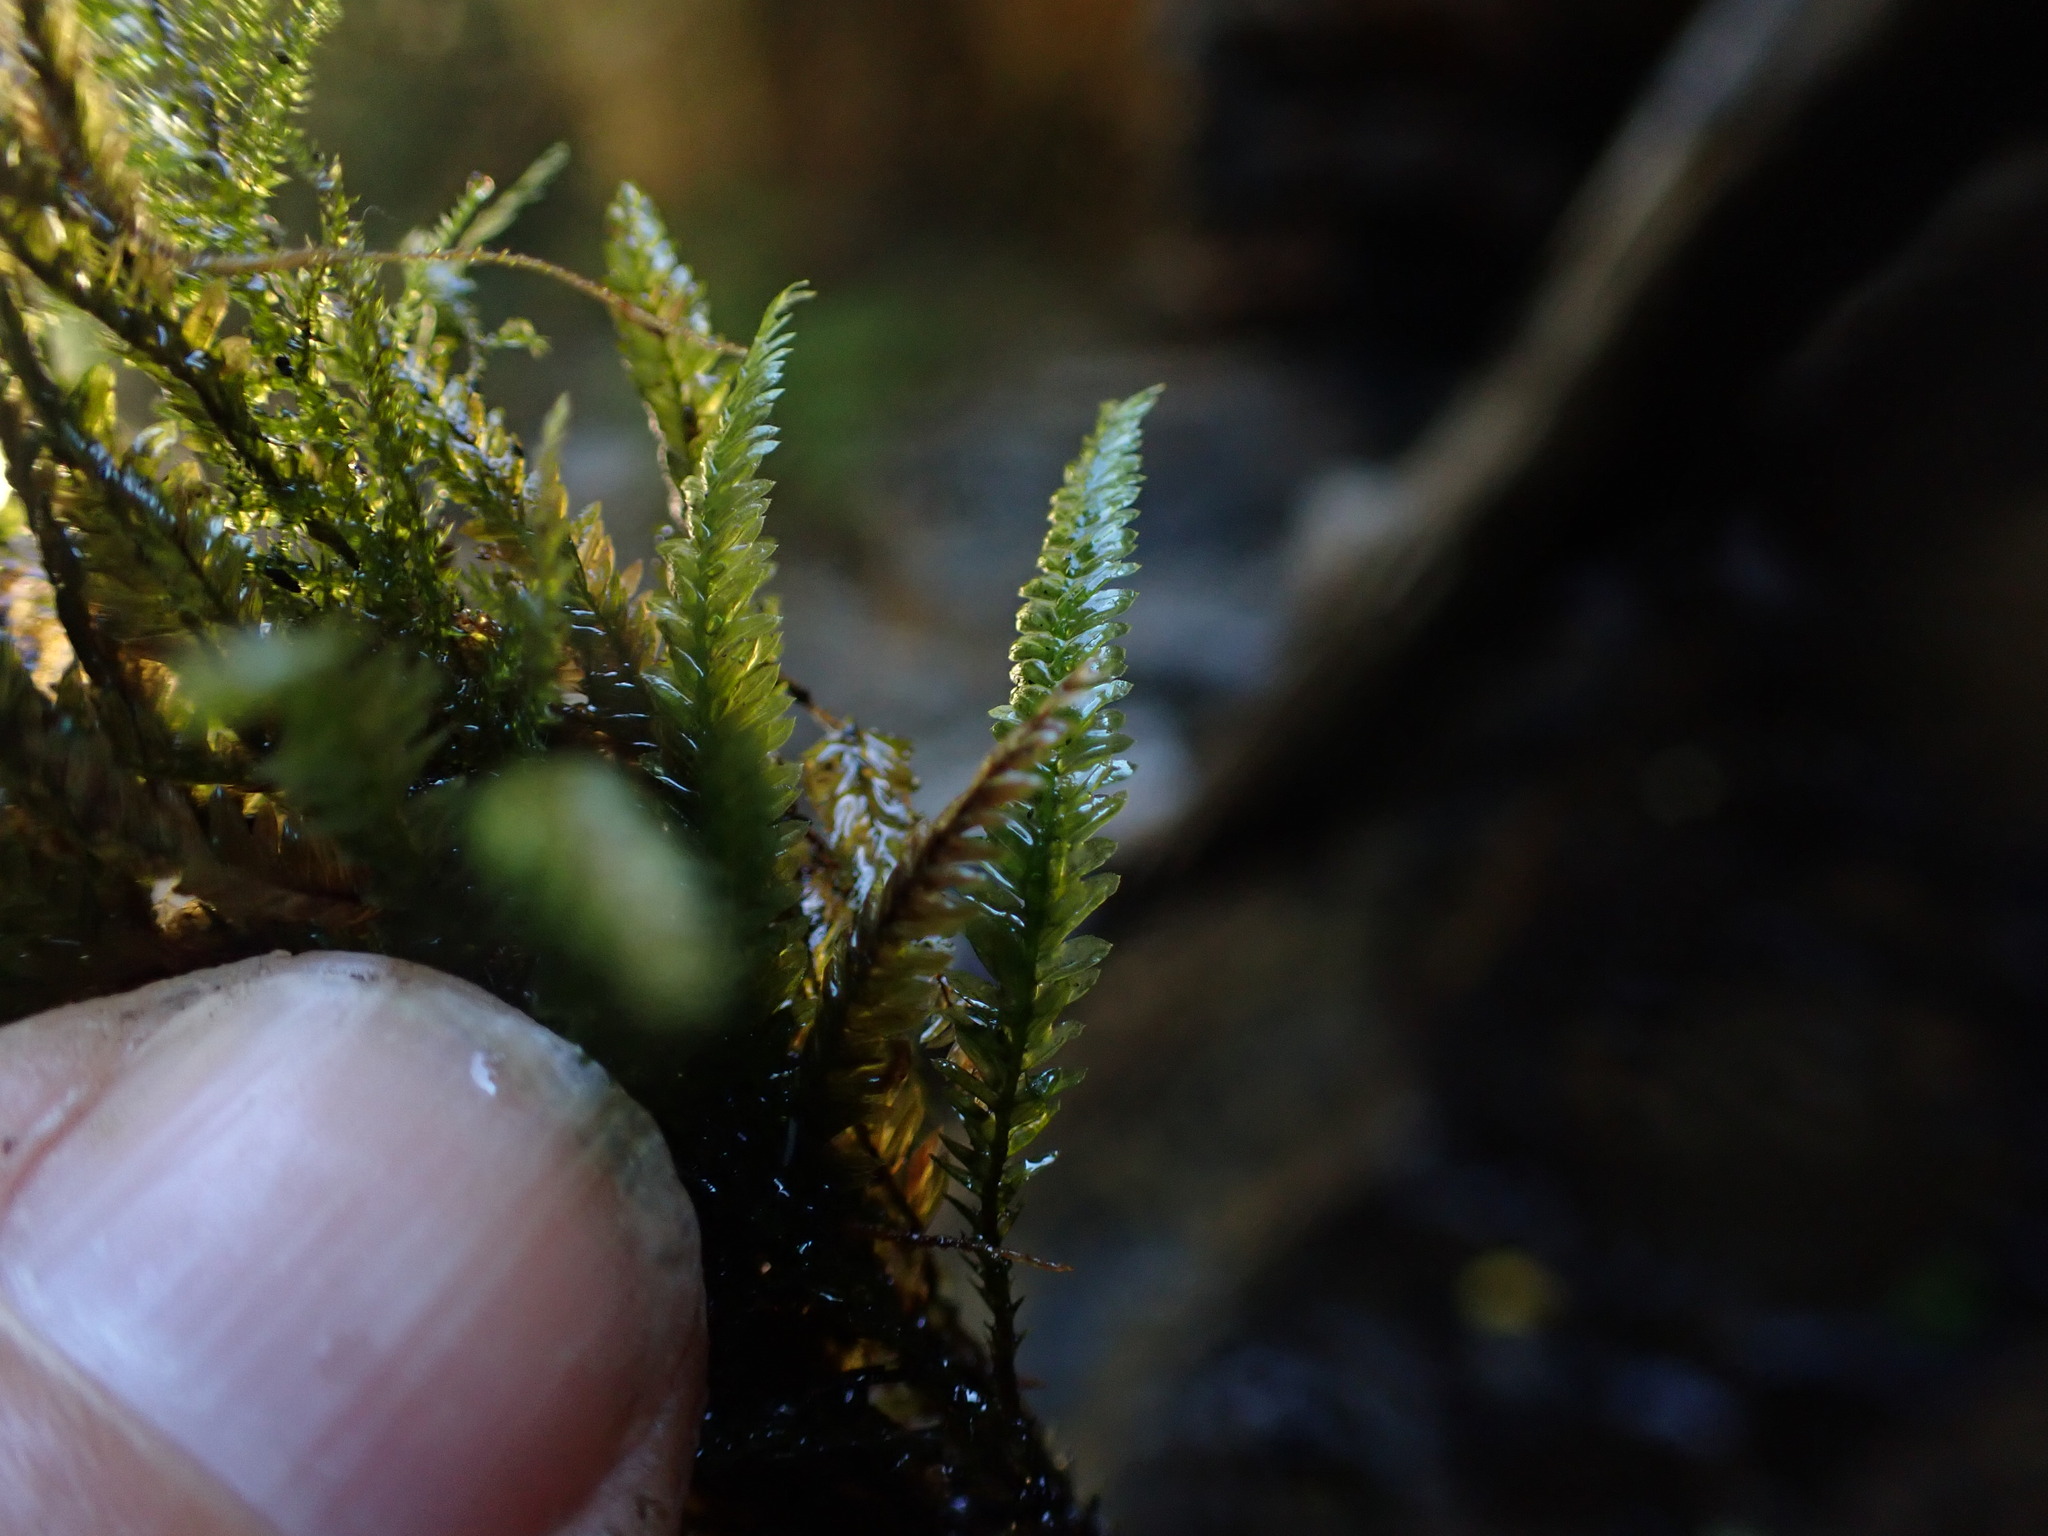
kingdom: Plantae
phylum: Bryophyta
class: Bryopsida
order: Hypnales
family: Neckeraceae
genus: Dannorrisia
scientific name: Dannorrisia bigelovii
